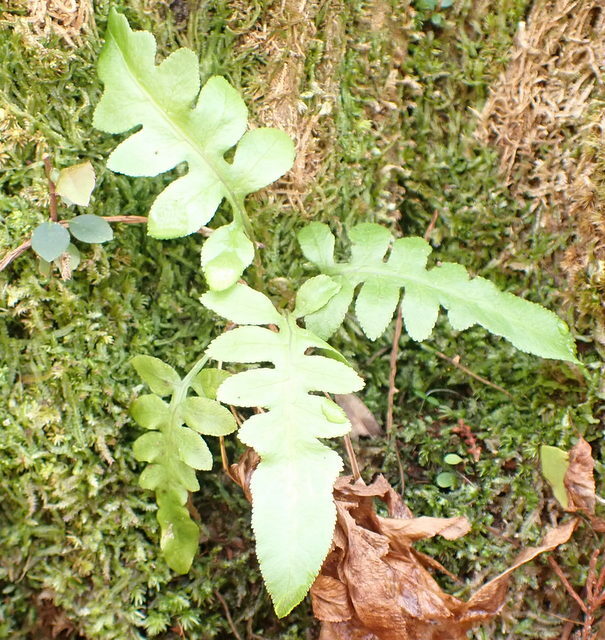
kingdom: Plantae
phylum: Tracheophyta
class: Polypodiopsida
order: Polypodiales
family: Blechnaceae
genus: Lorinseria
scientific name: Lorinseria areolata
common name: Dwarf chain fern
